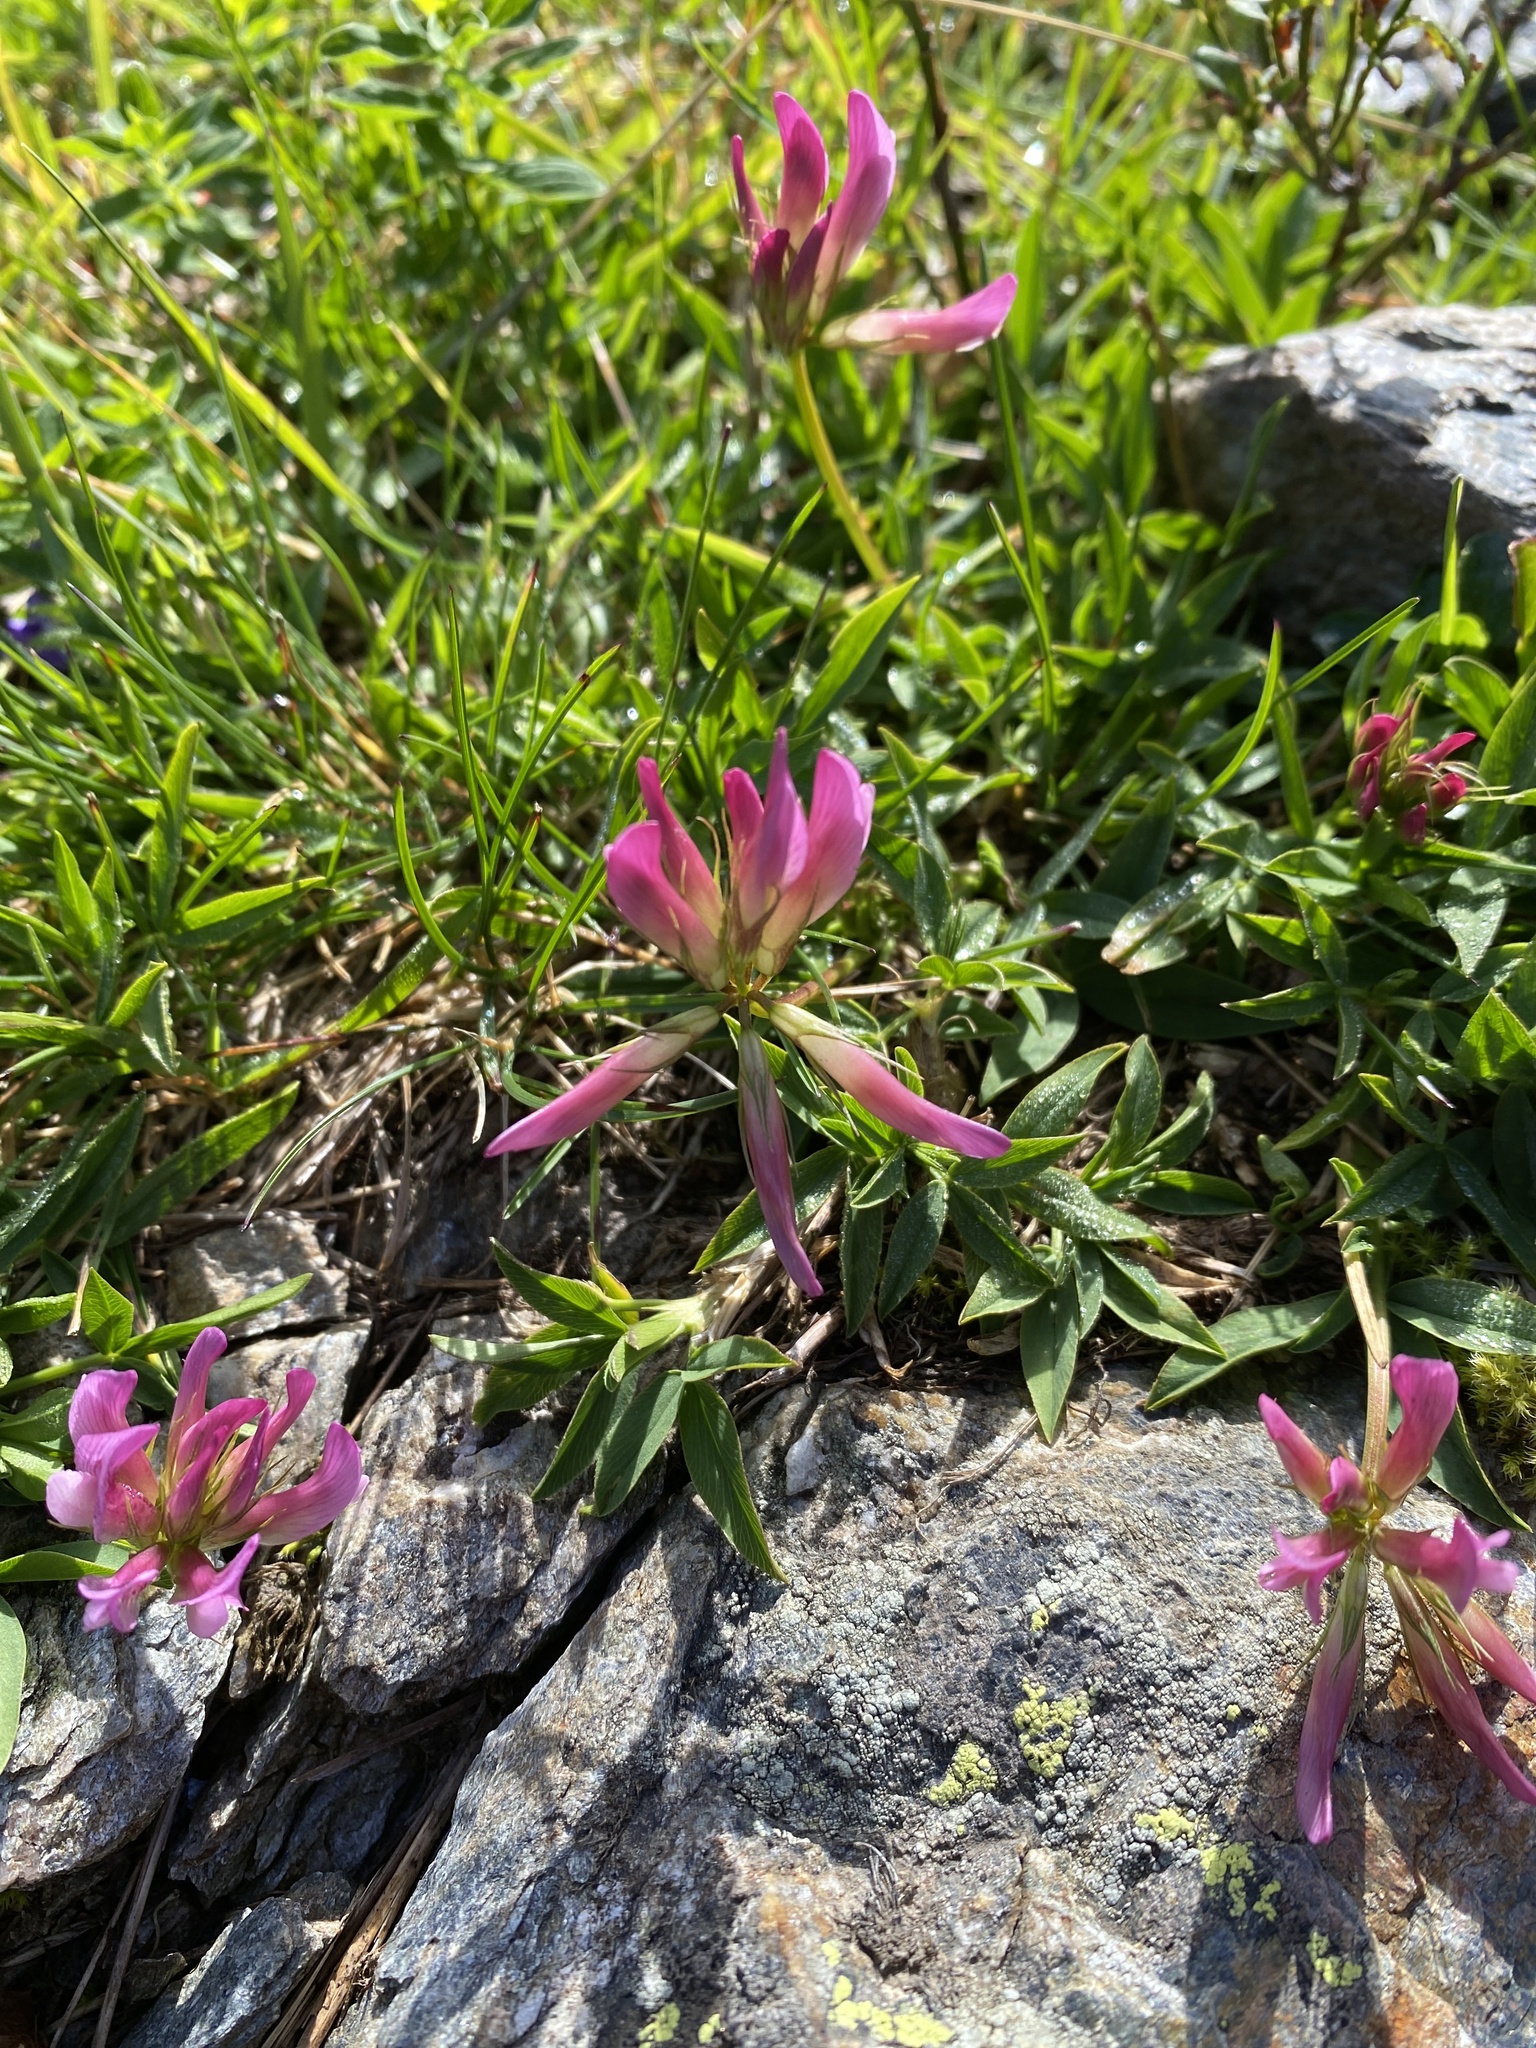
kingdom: Plantae
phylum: Tracheophyta
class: Magnoliopsida
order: Fabales
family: Fabaceae
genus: Trifolium
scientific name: Trifolium alpinum
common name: Alpine clover
